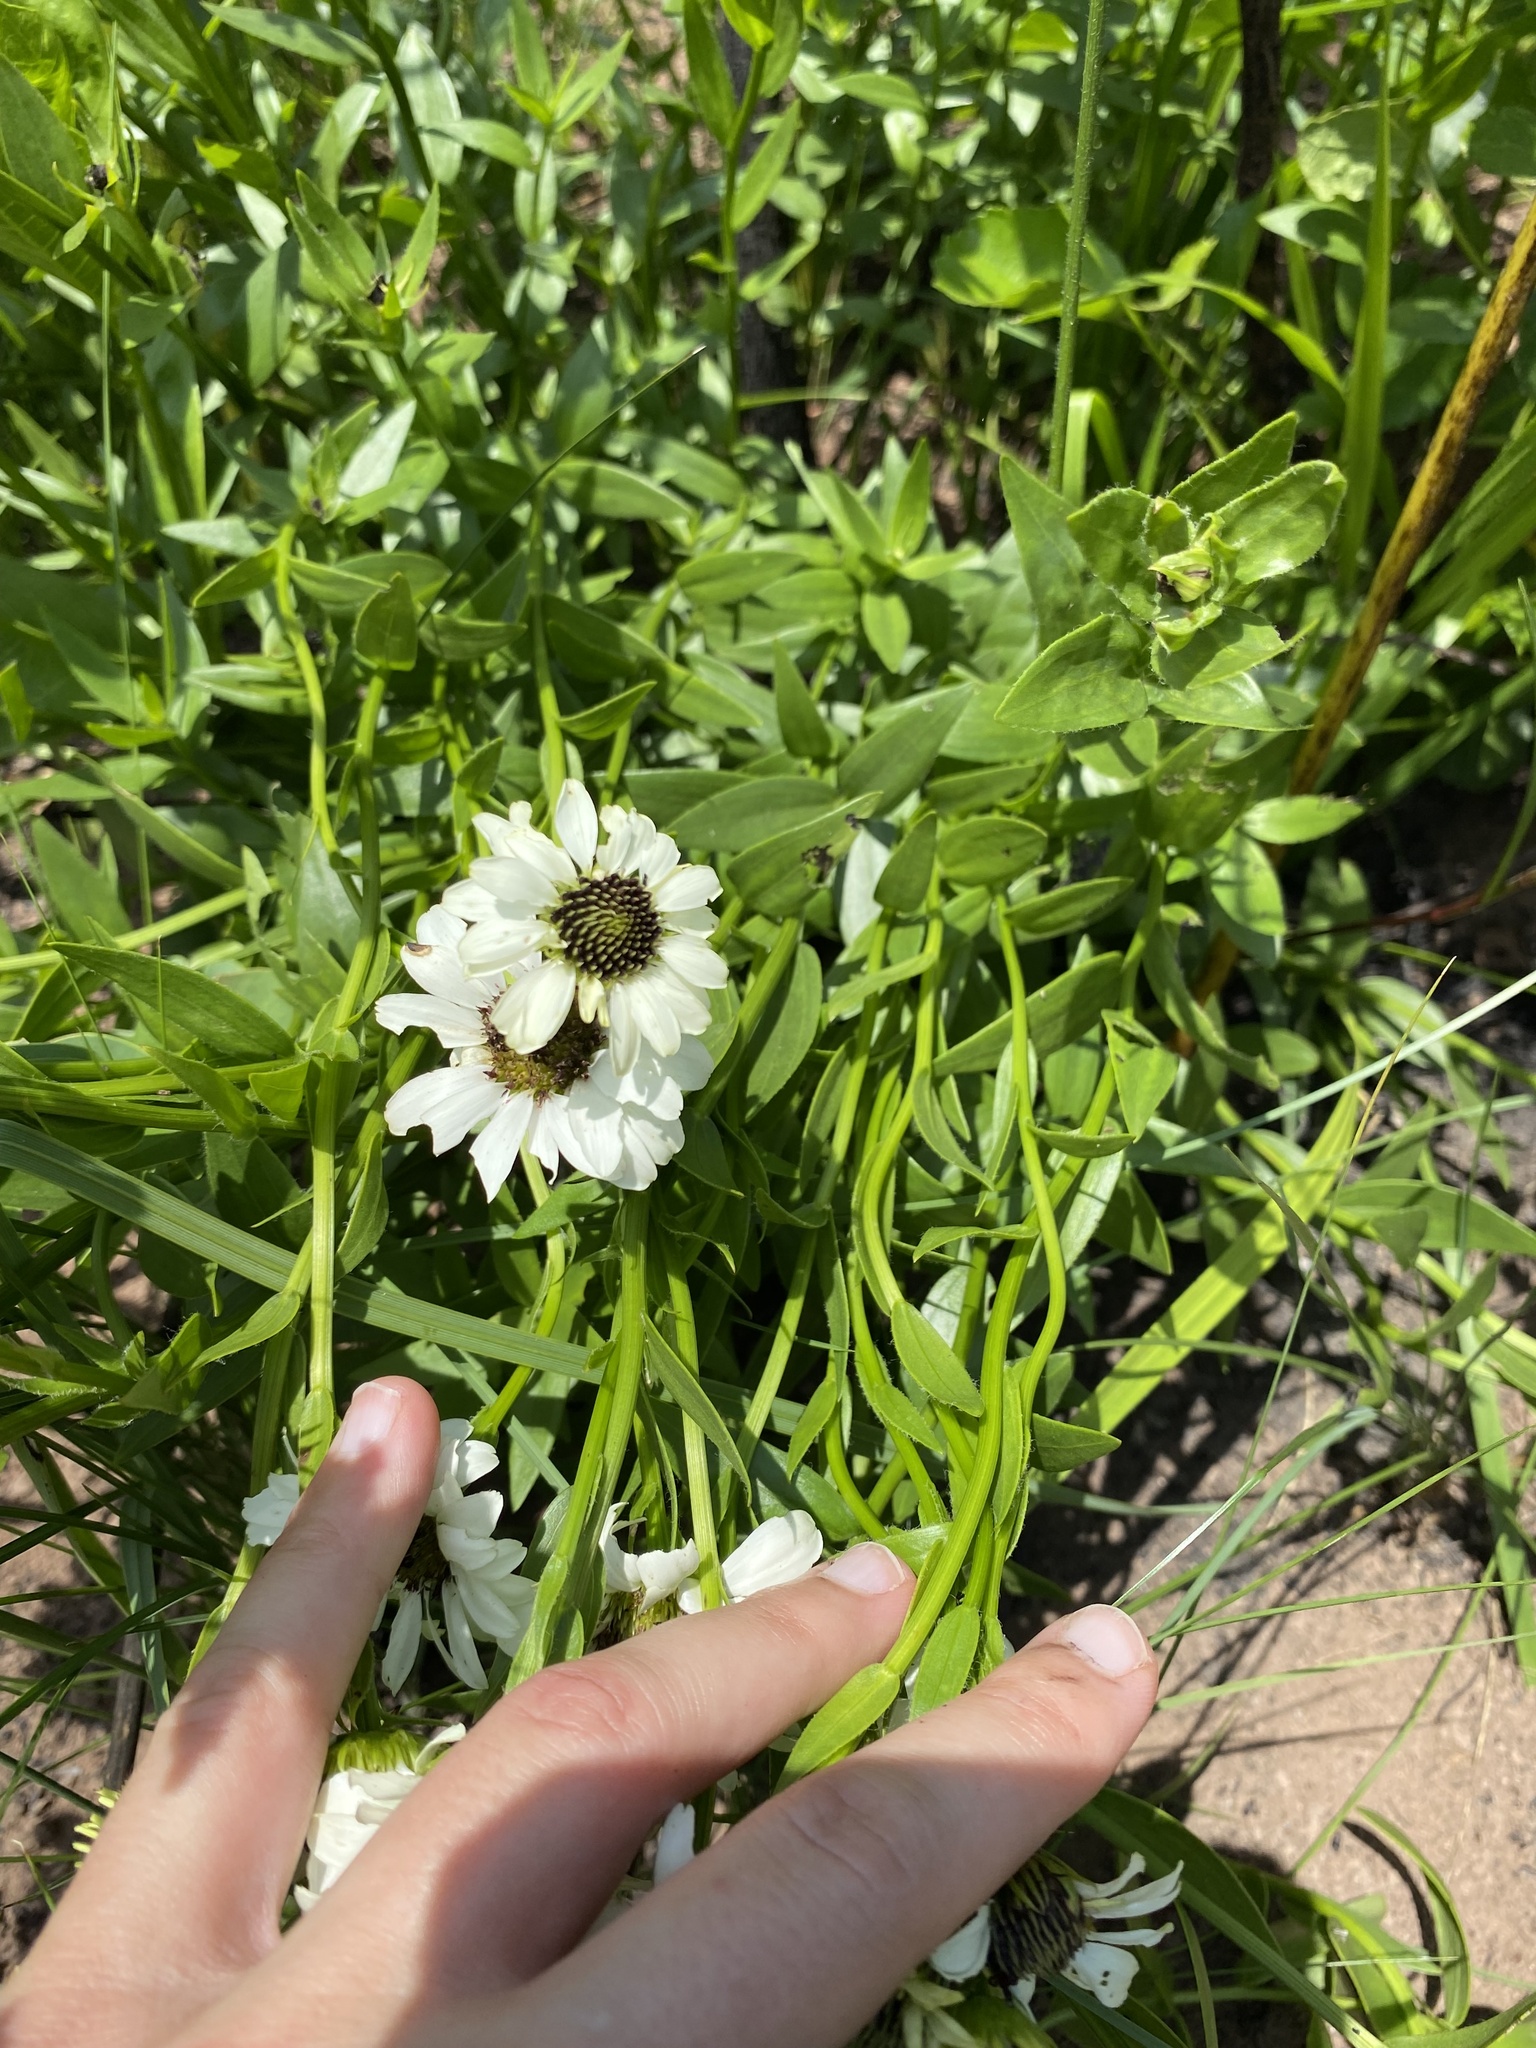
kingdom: Plantae
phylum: Tracheophyta
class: Magnoliopsida
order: Asterales
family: Asteraceae
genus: Callilepis
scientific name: Callilepis laureola
